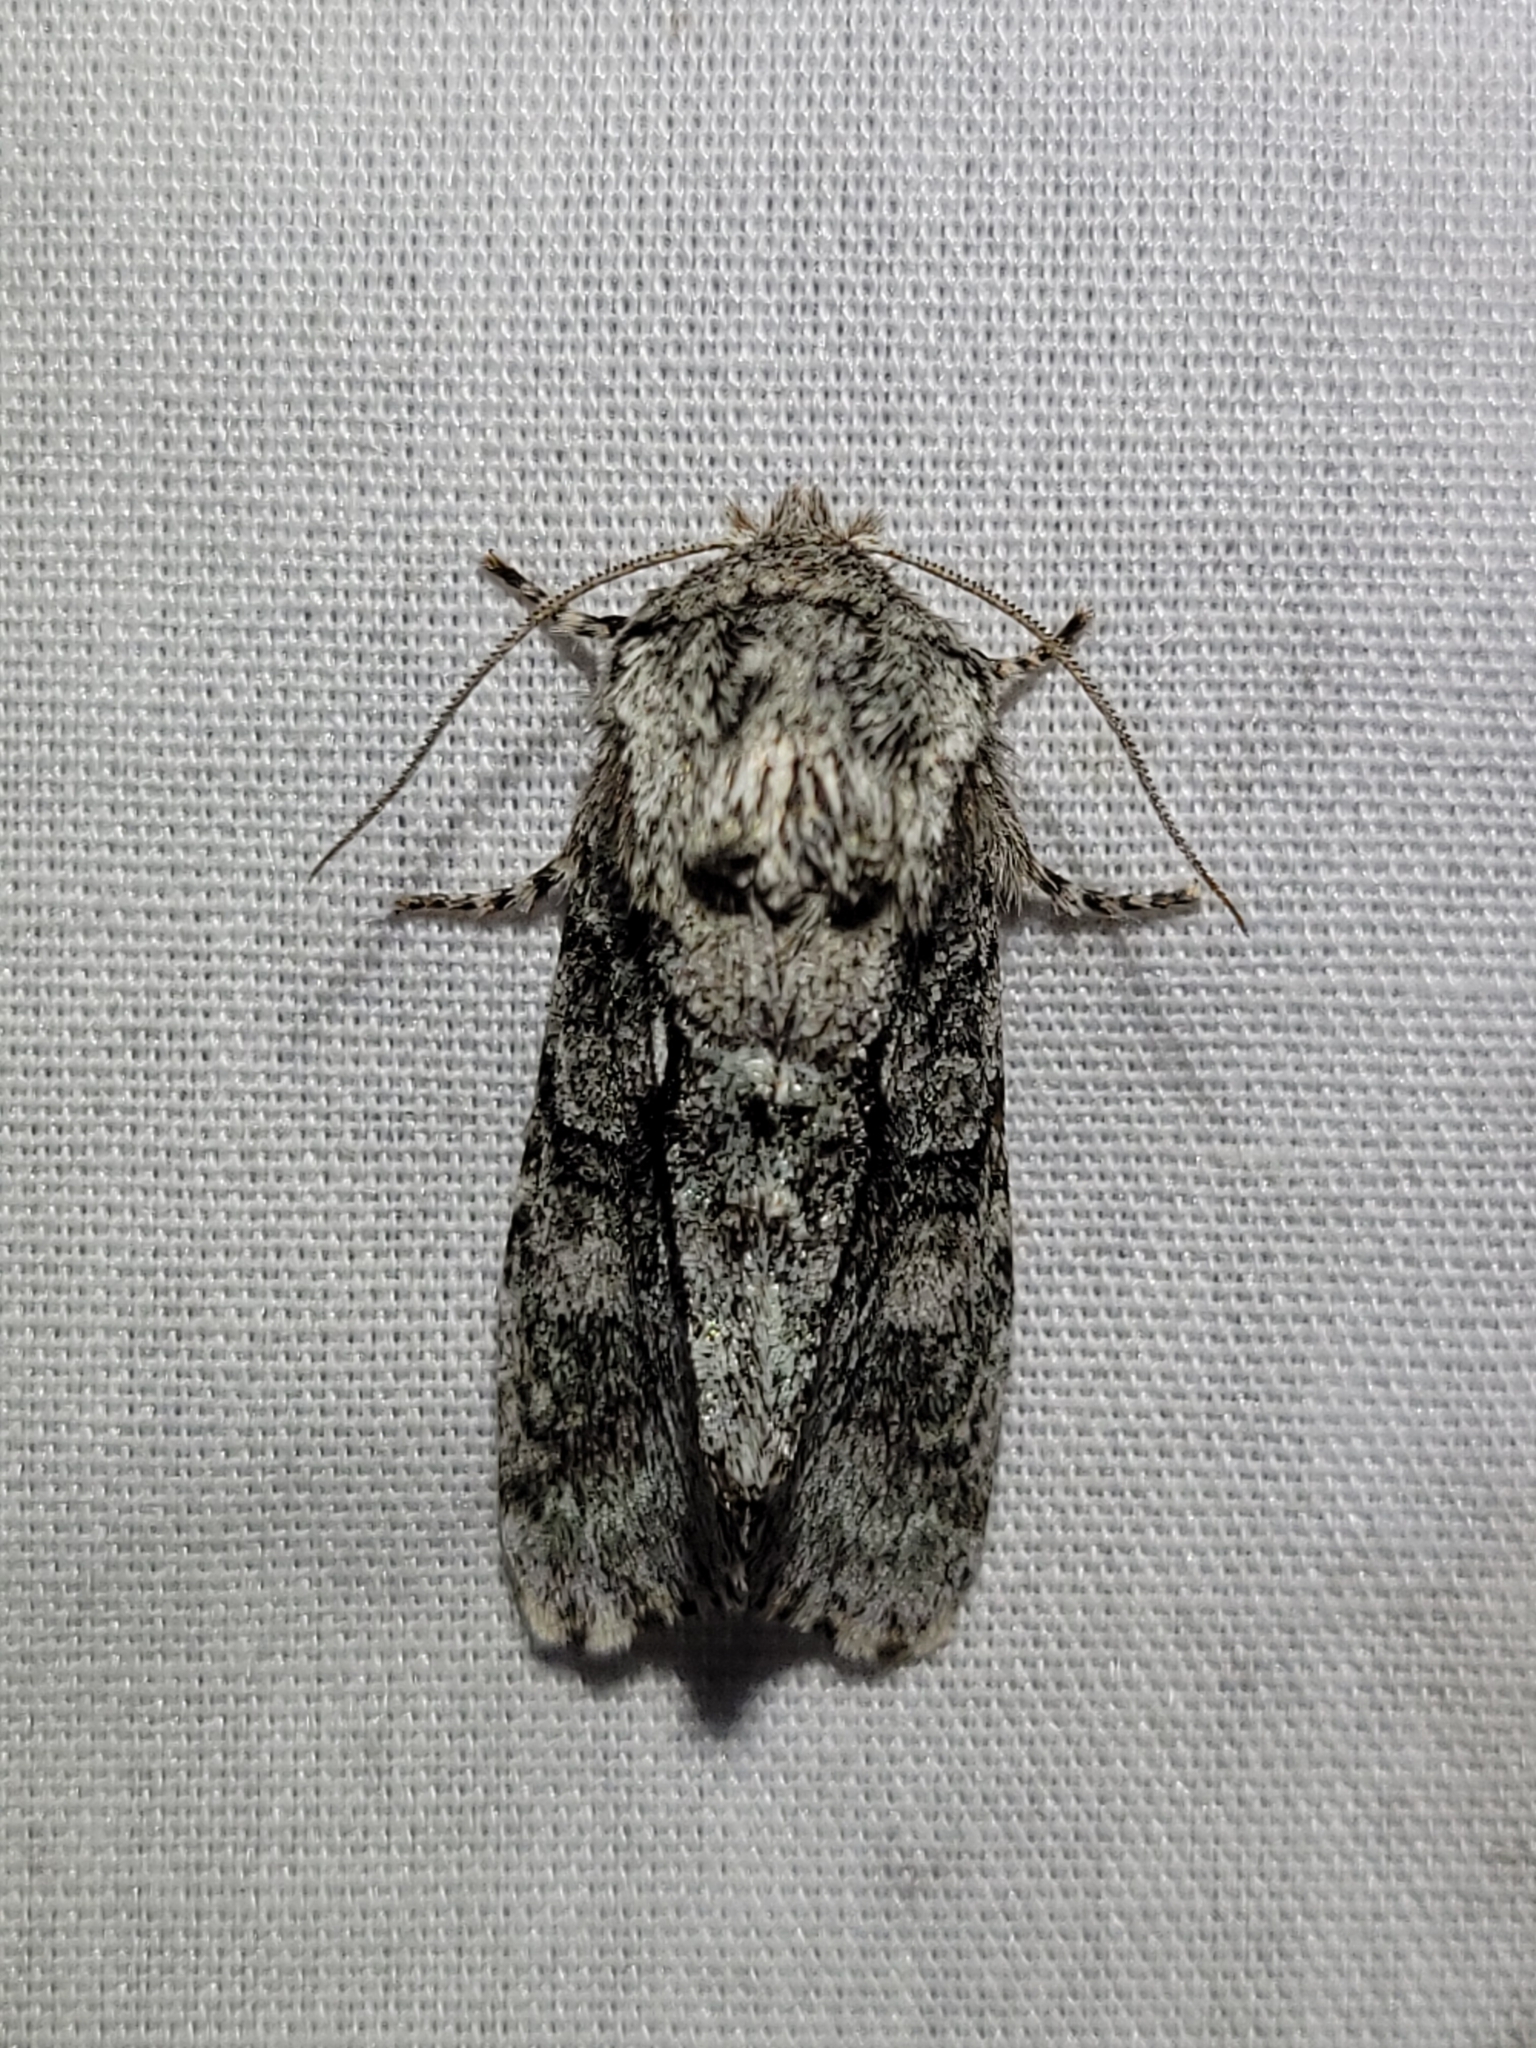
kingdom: Animalia
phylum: Arthropoda
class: Insecta
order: Lepidoptera
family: Noctuidae
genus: Psaphida
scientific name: Psaphida resumens
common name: Figure-eight sallow
